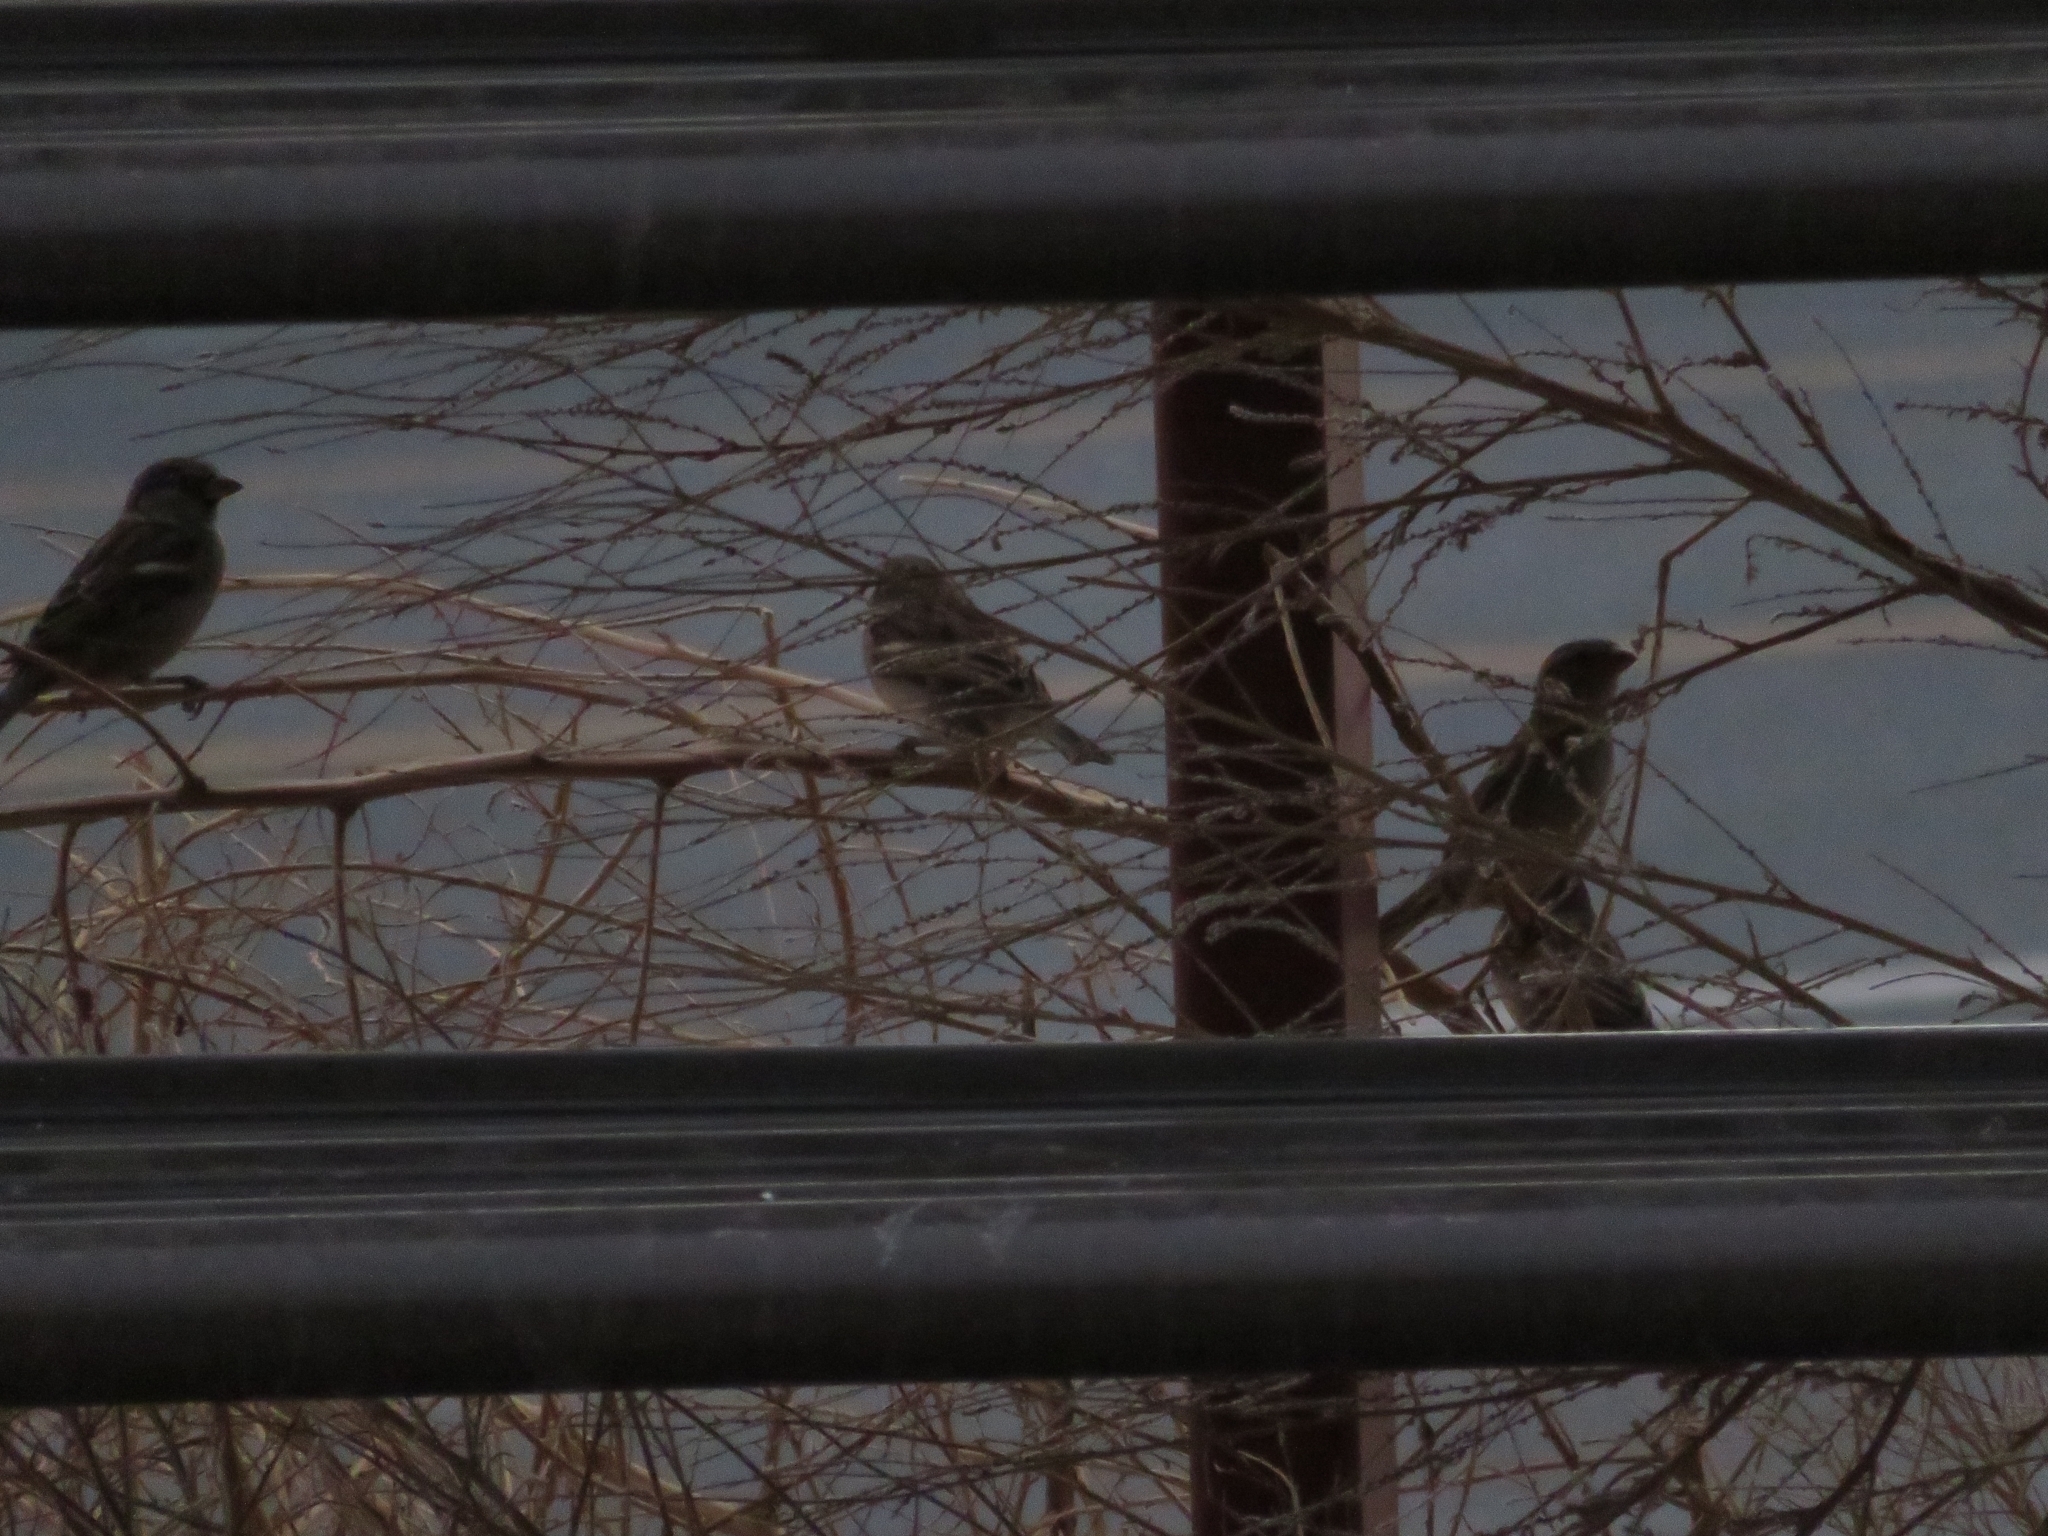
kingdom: Animalia
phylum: Chordata
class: Aves
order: Passeriformes
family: Passeridae
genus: Passer
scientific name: Passer domesticus
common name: House sparrow
